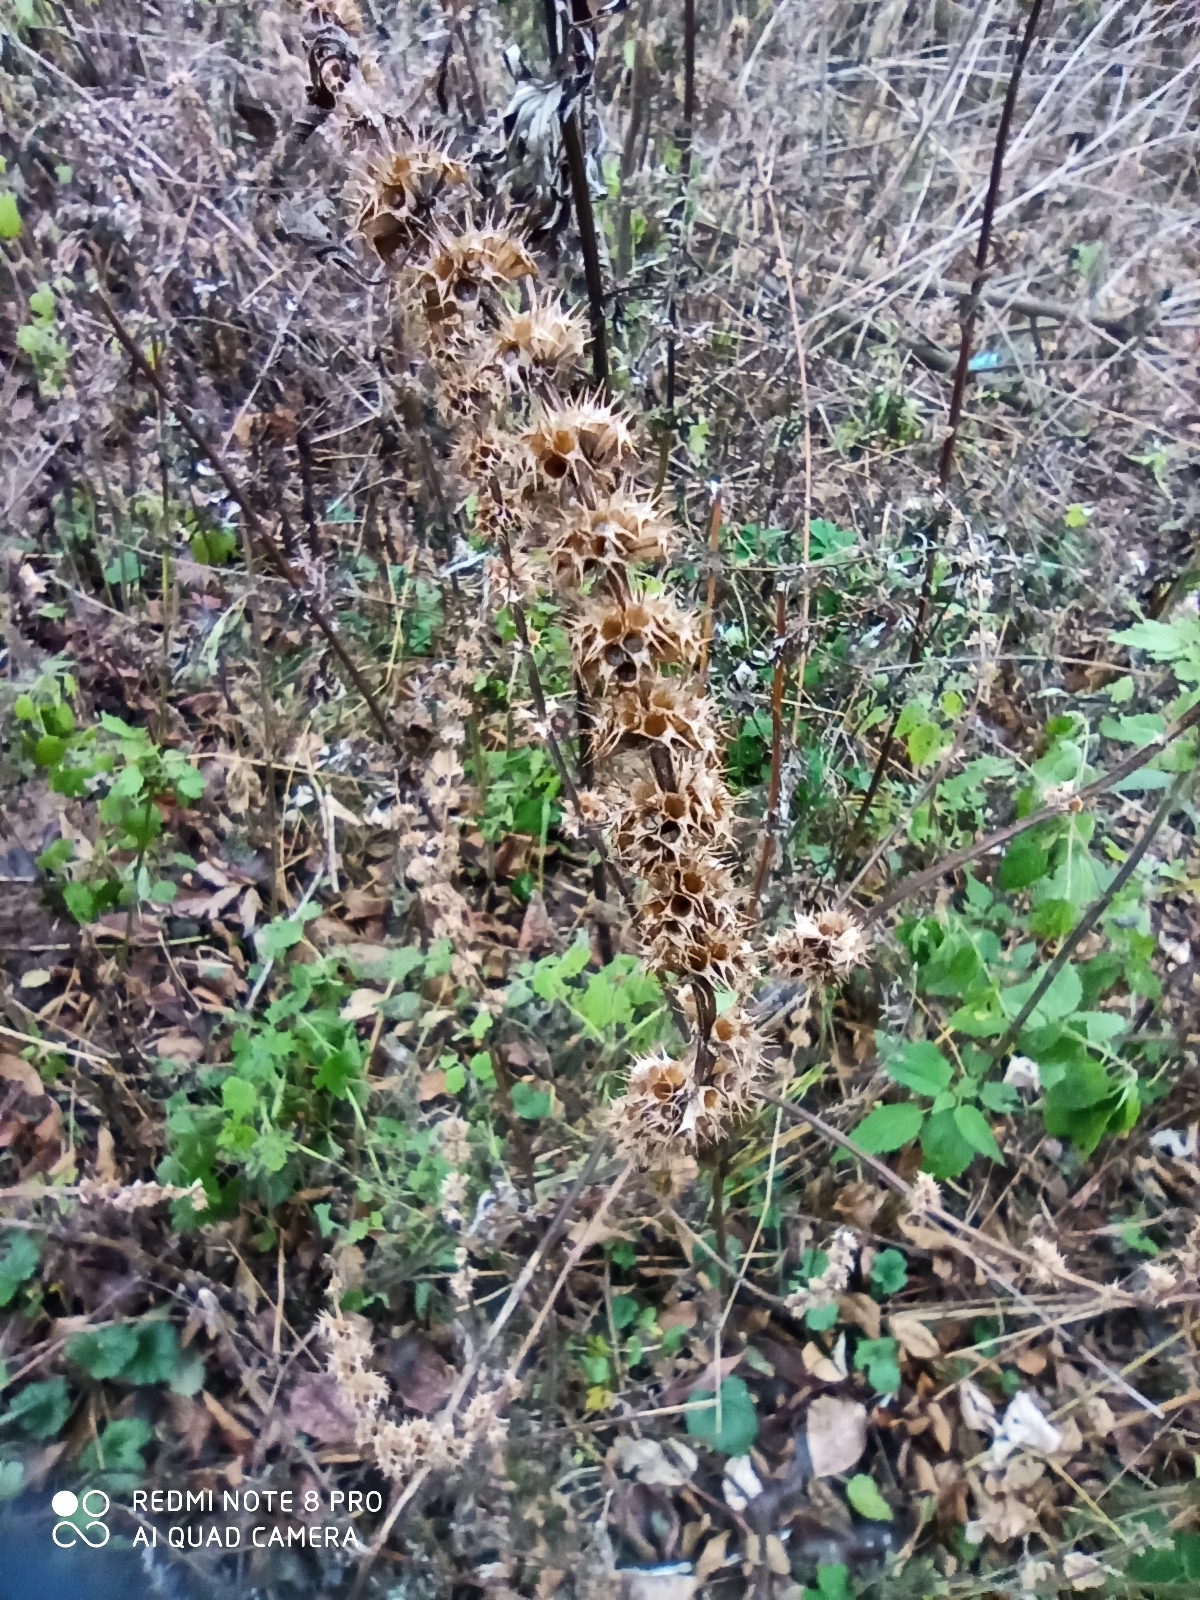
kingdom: Plantae
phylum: Tracheophyta
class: Magnoliopsida
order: Lamiales
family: Lamiaceae
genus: Leonurus
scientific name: Leonurus quinquelobatus
